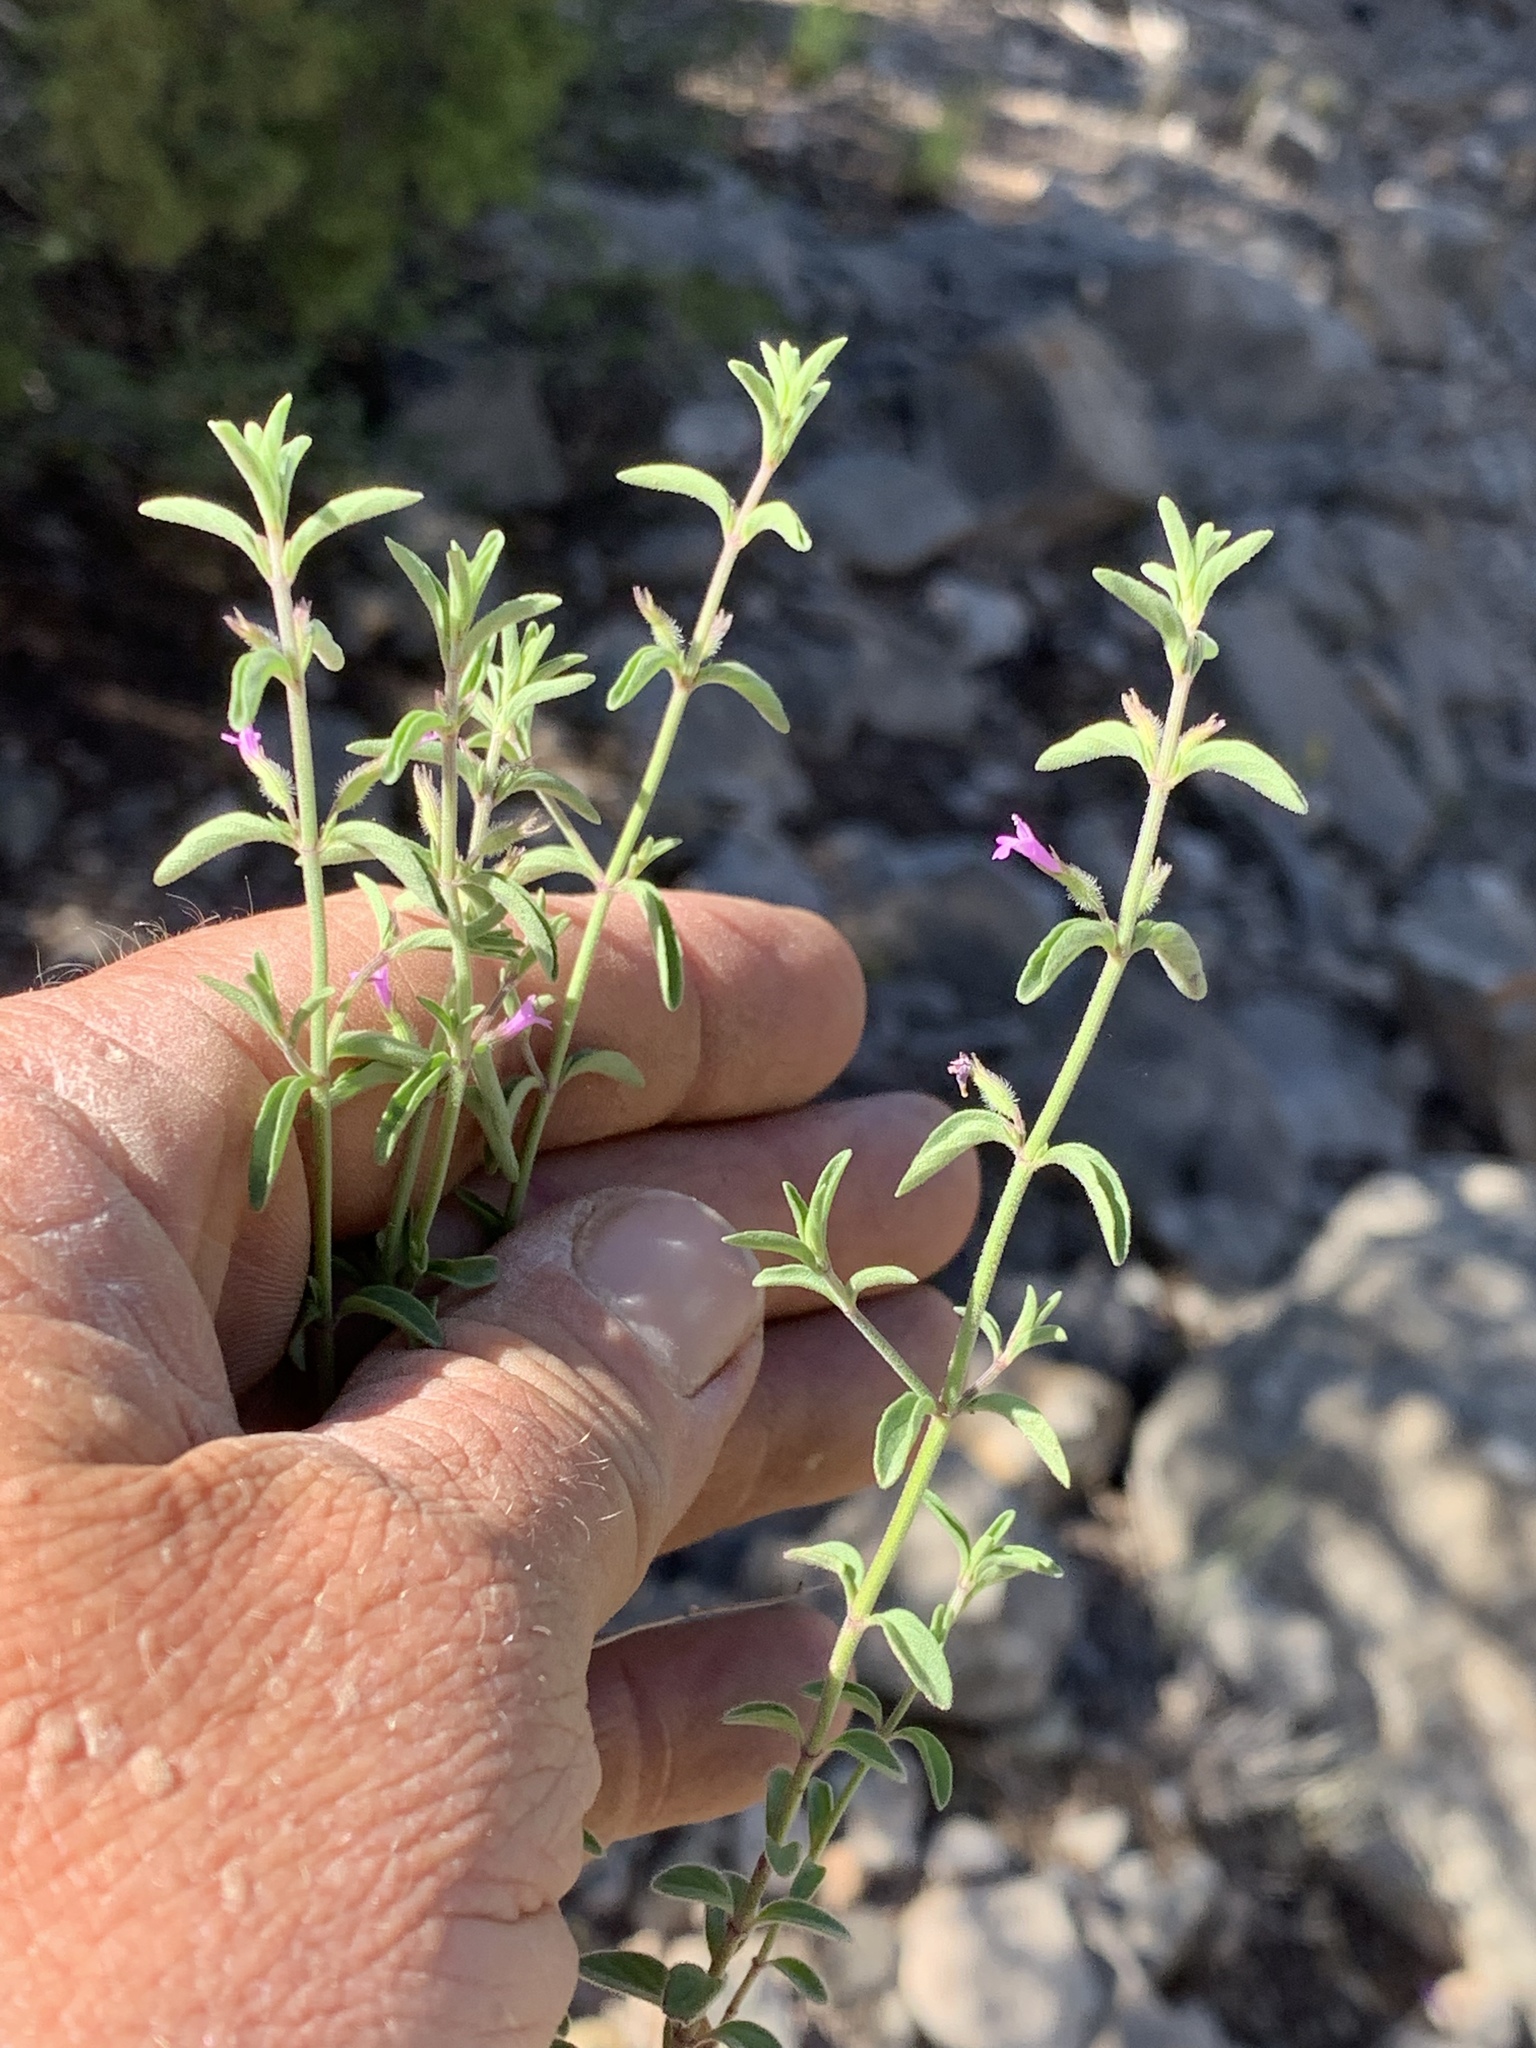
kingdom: Plantae
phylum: Tracheophyta
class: Magnoliopsida
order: Lamiales
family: Lamiaceae
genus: Hedeoma
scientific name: Hedeoma drummondii
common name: New mexico pennyroyal
